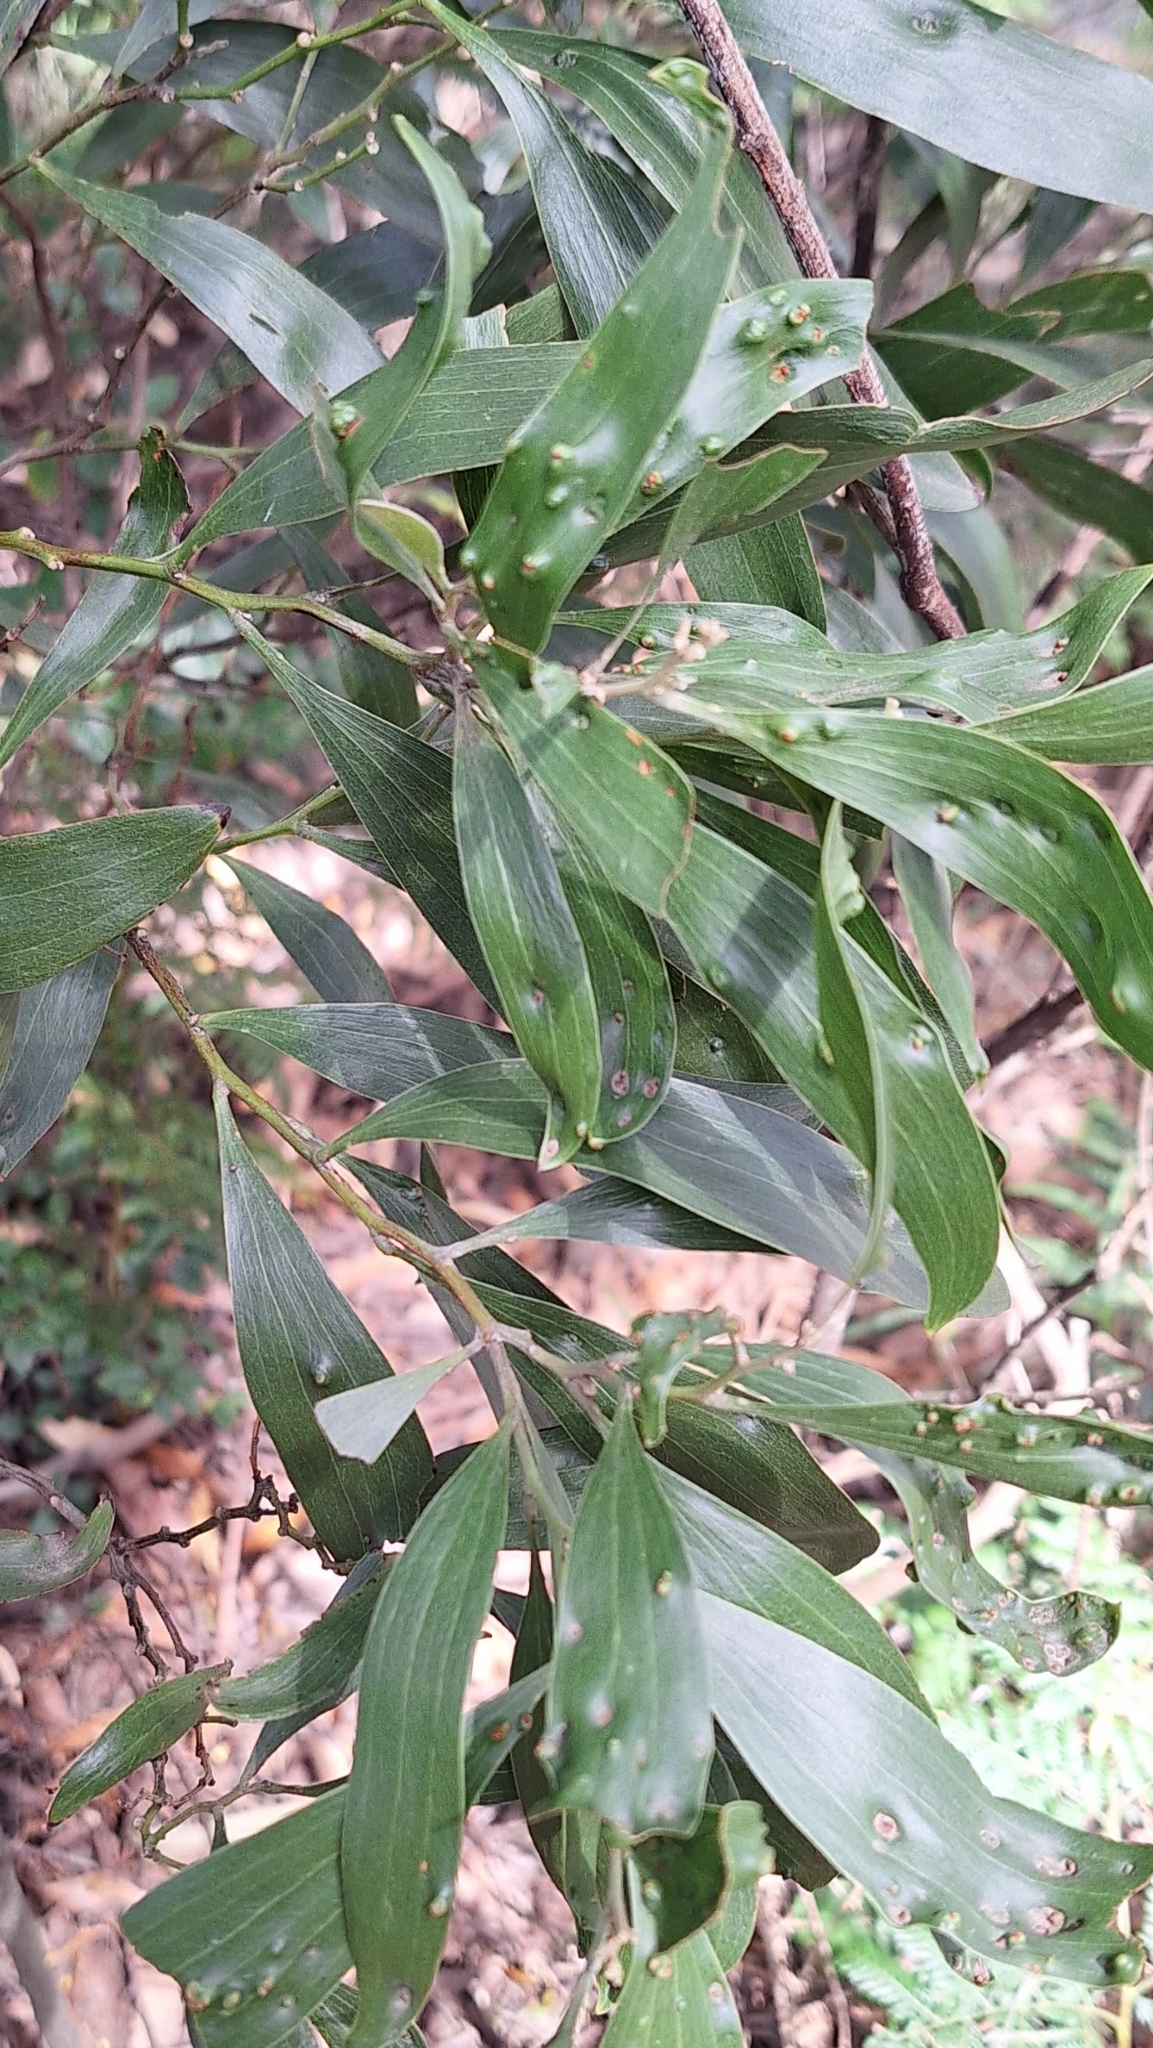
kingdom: Plantae
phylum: Tracheophyta
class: Magnoliopsida
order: Fabales
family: Fabaceae
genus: Acacia
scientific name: Acacia melanoxylon
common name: Blackwood
